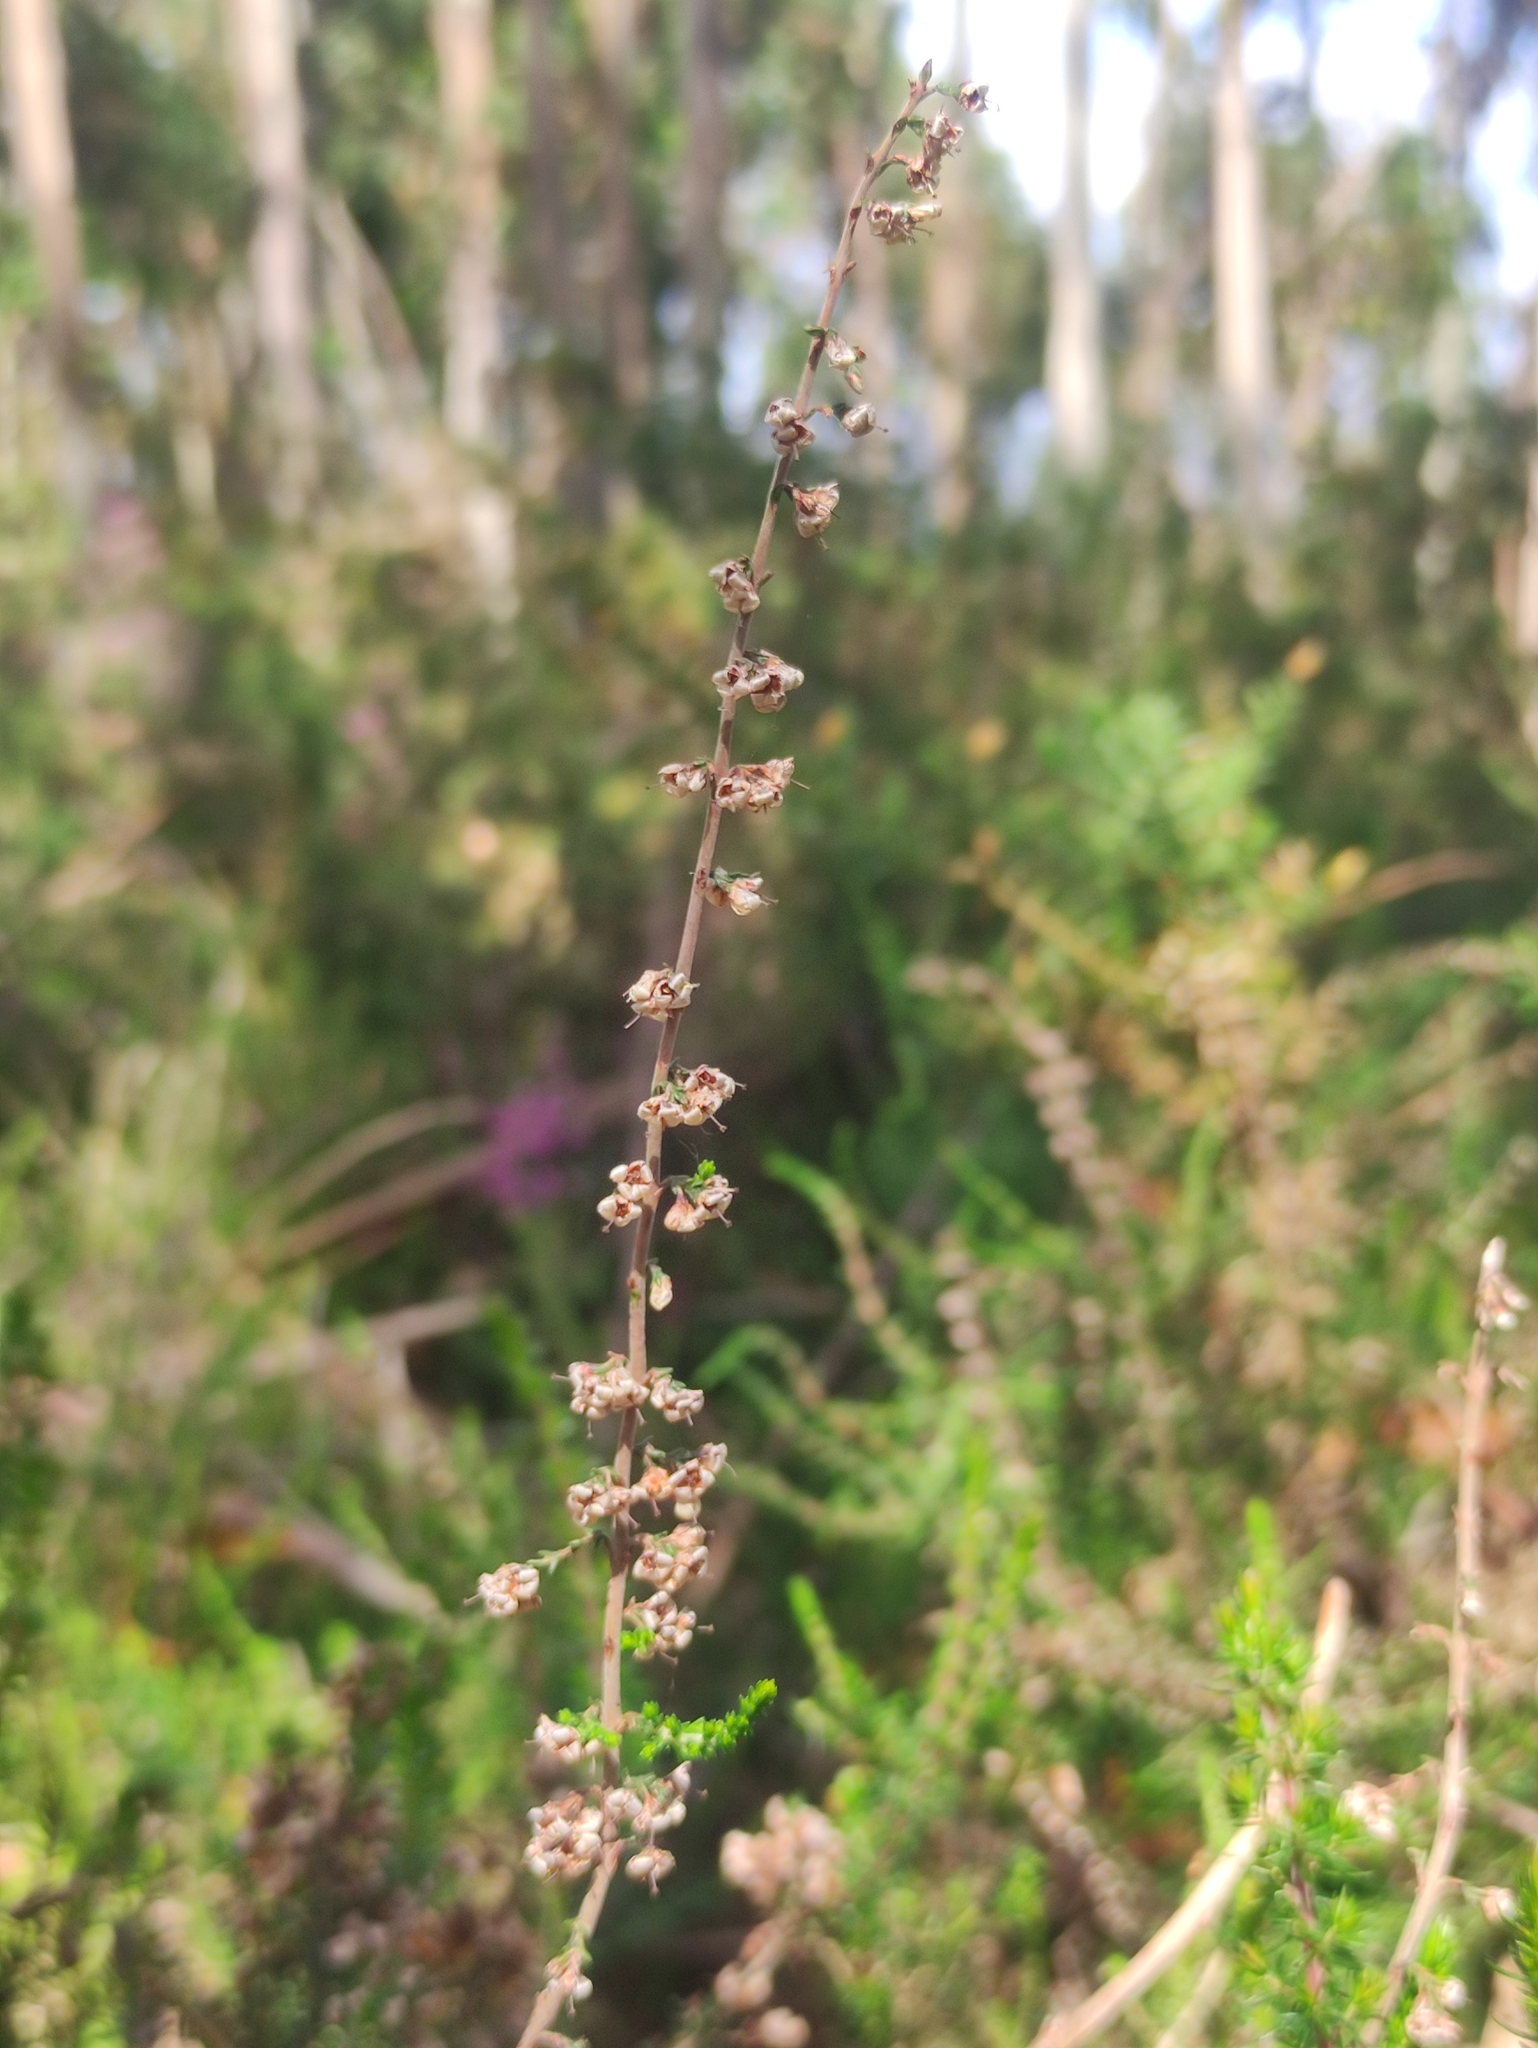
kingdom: Plantae
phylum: Tracheophyta
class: Magnoliopsida
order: Ericales
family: Ericaceae
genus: Calluna
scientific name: Calluna vulgaris
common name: Heather
